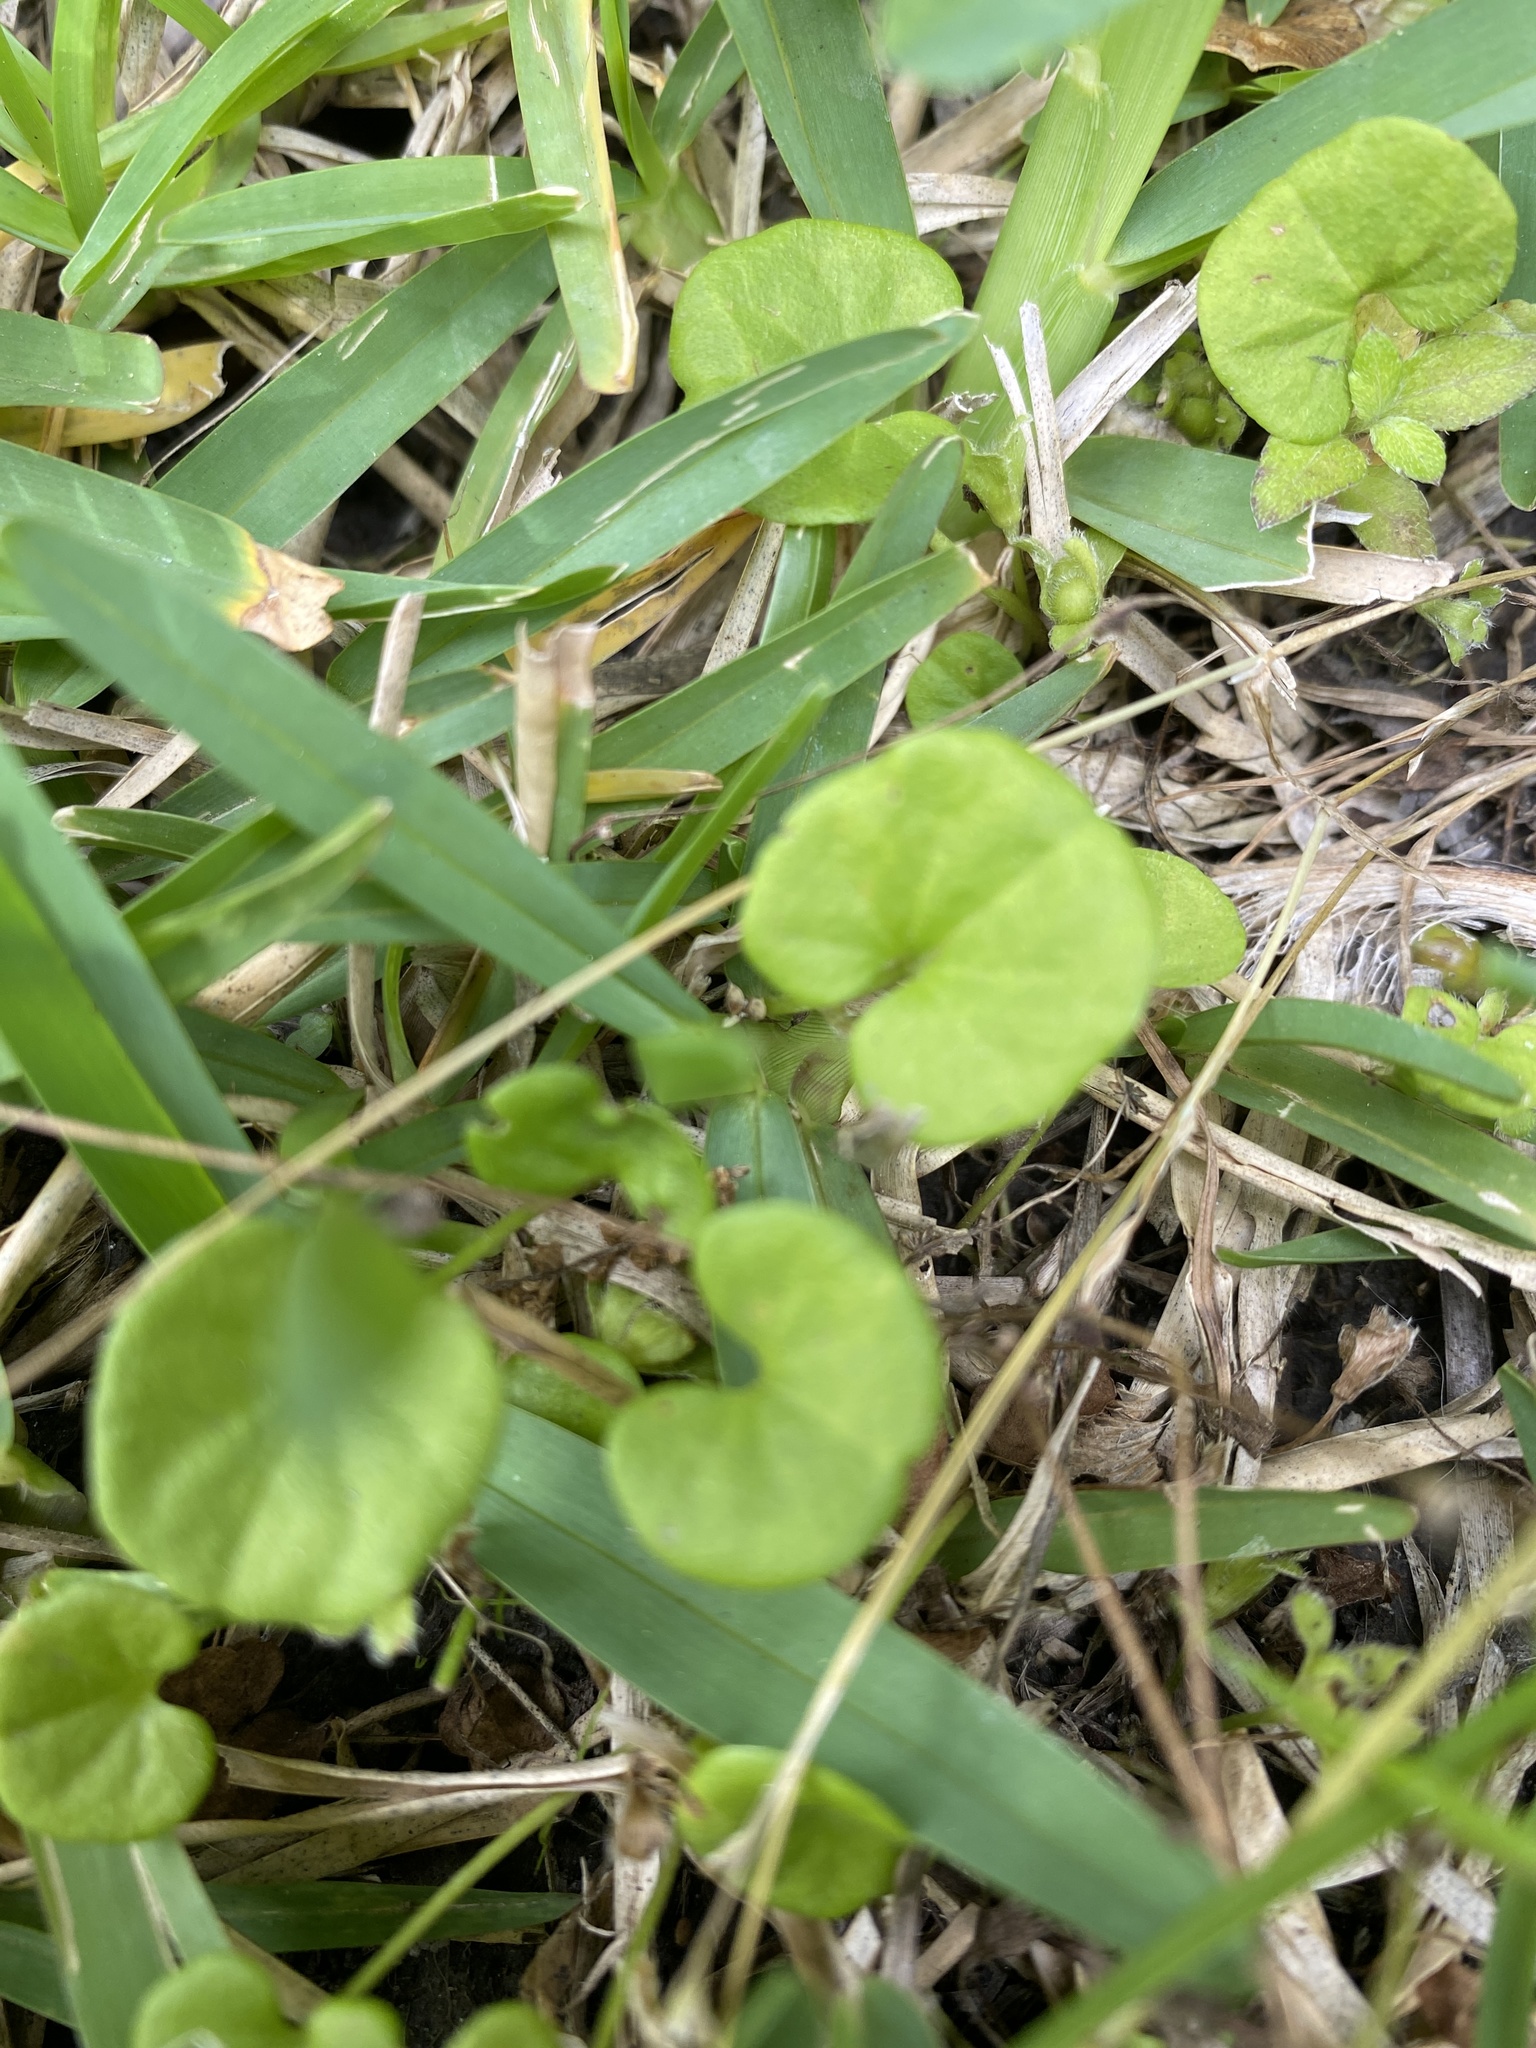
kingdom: Plantae
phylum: Tracheophyta
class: Magnoliopsida
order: Solanales
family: Convolvulaceae
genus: Dichondra
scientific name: Dichondra carolinensis
